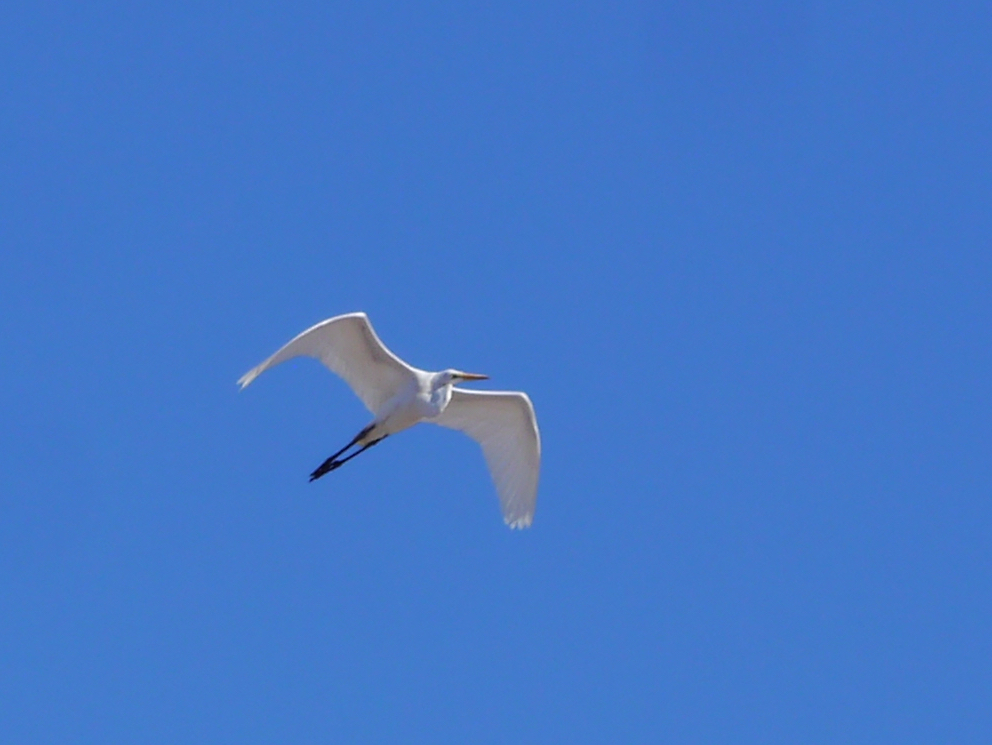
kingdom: Animalia
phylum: Chordata
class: Aves
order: Pelecaniformes
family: Ardeidae
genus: Ardea
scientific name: Ardea alba
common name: Great egret
